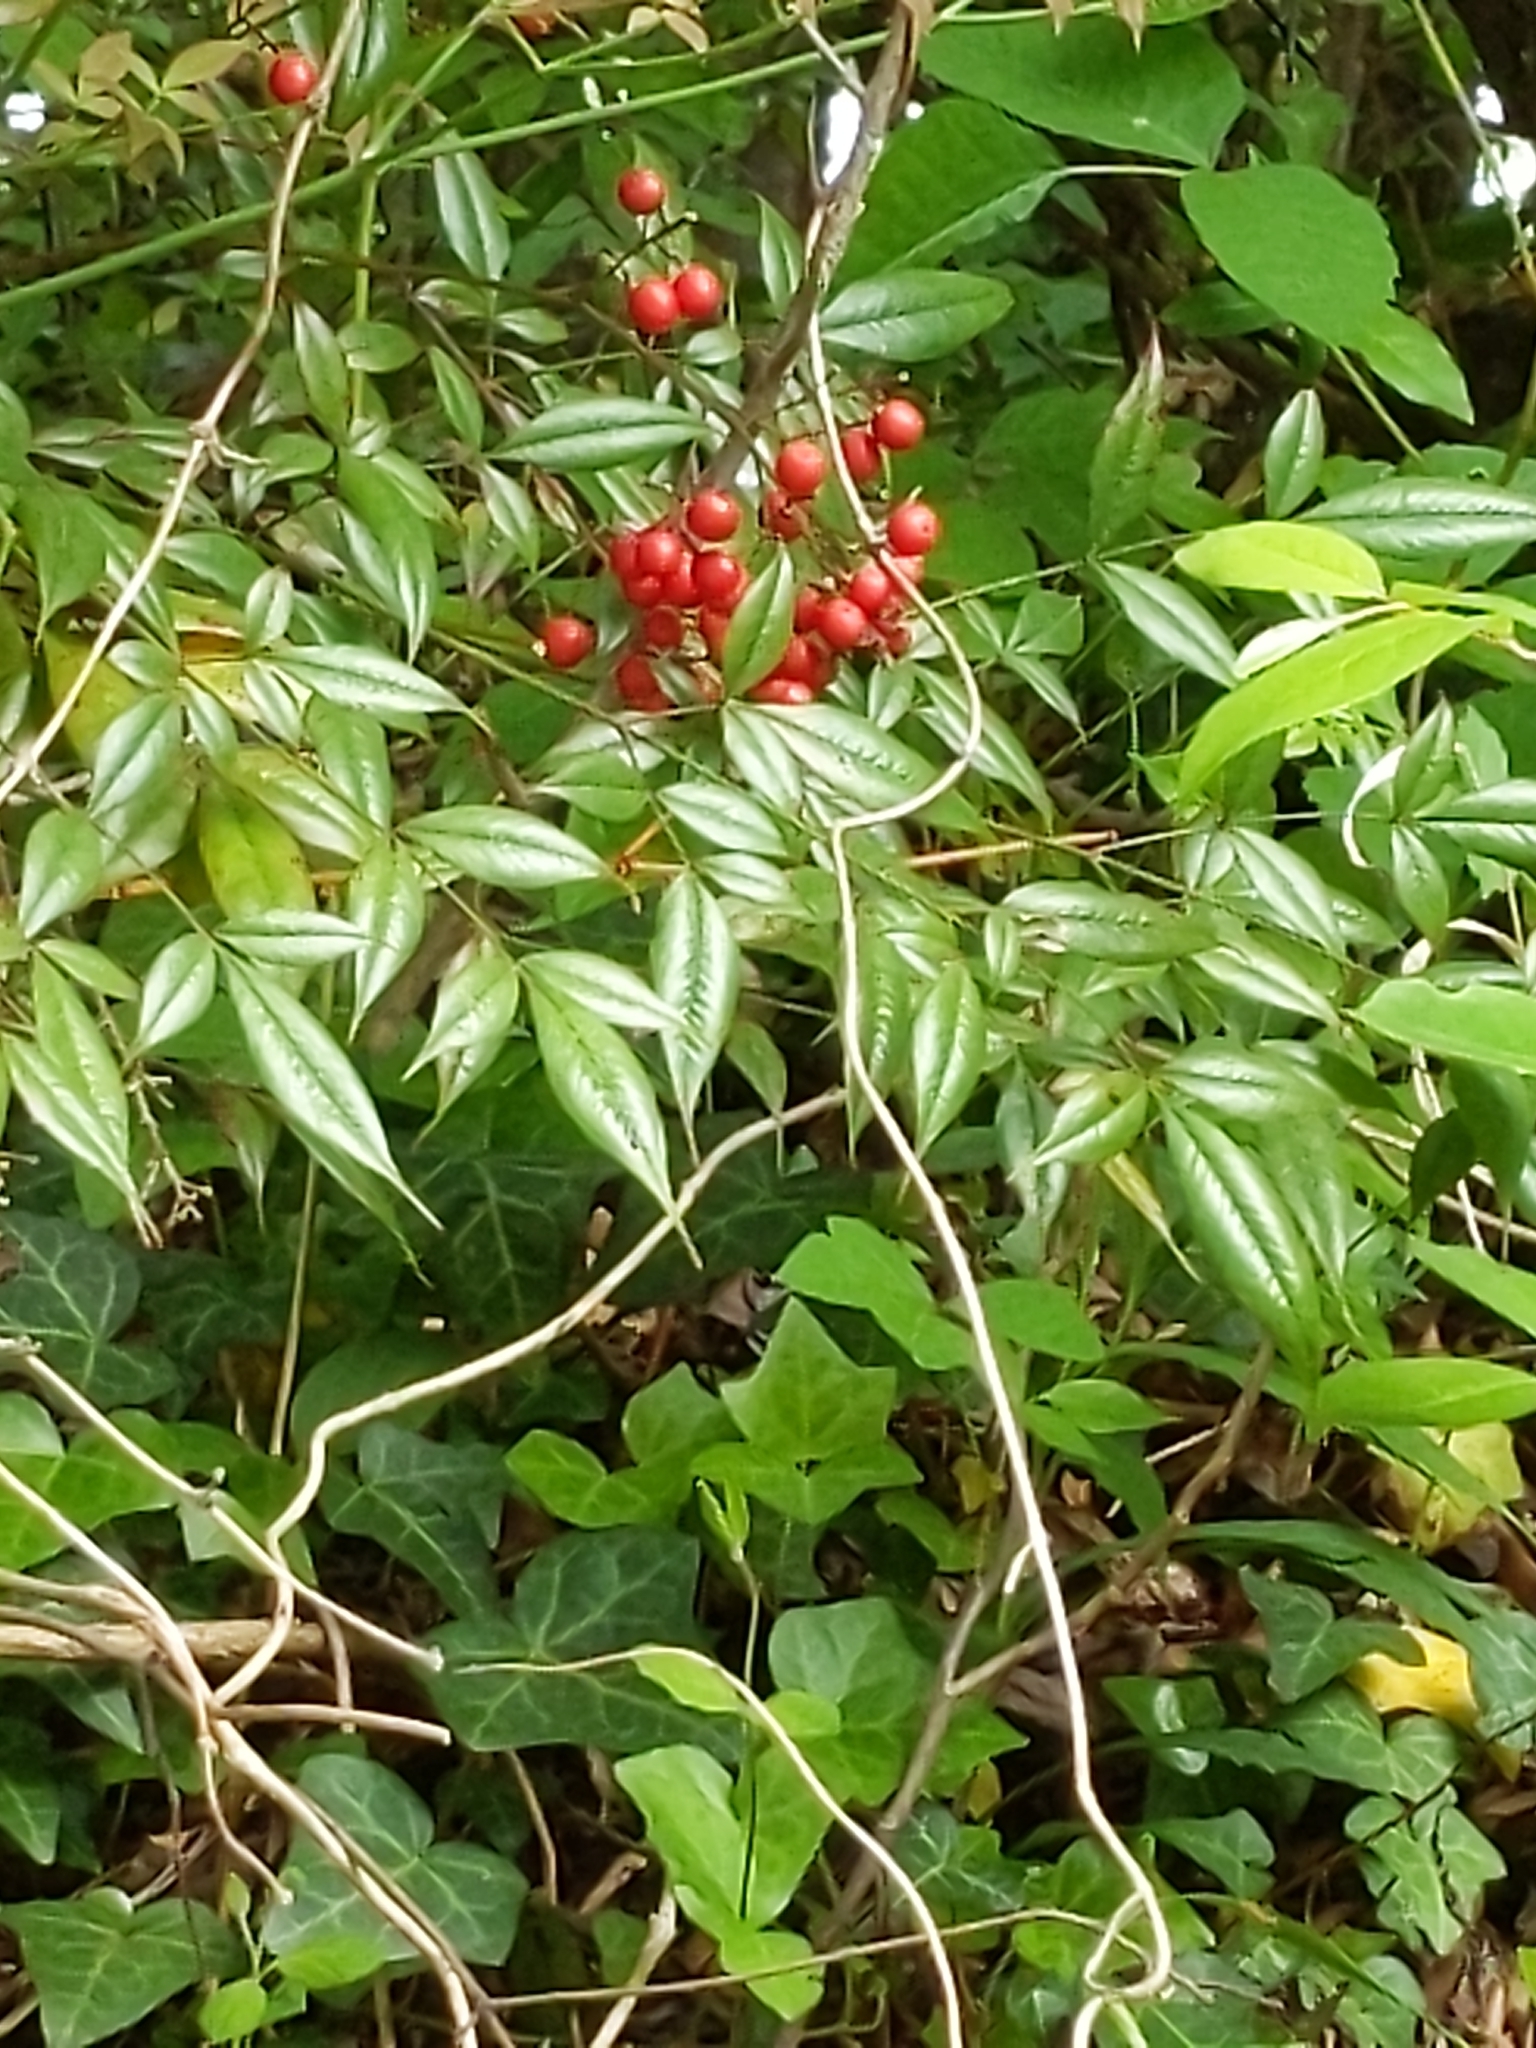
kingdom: Plantae
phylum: Tracheophyta
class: Magnoliopsida
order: Ranunculales
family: Berberidaceae
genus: Nandina
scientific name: Nandina domestica
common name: Sacred bamboo
